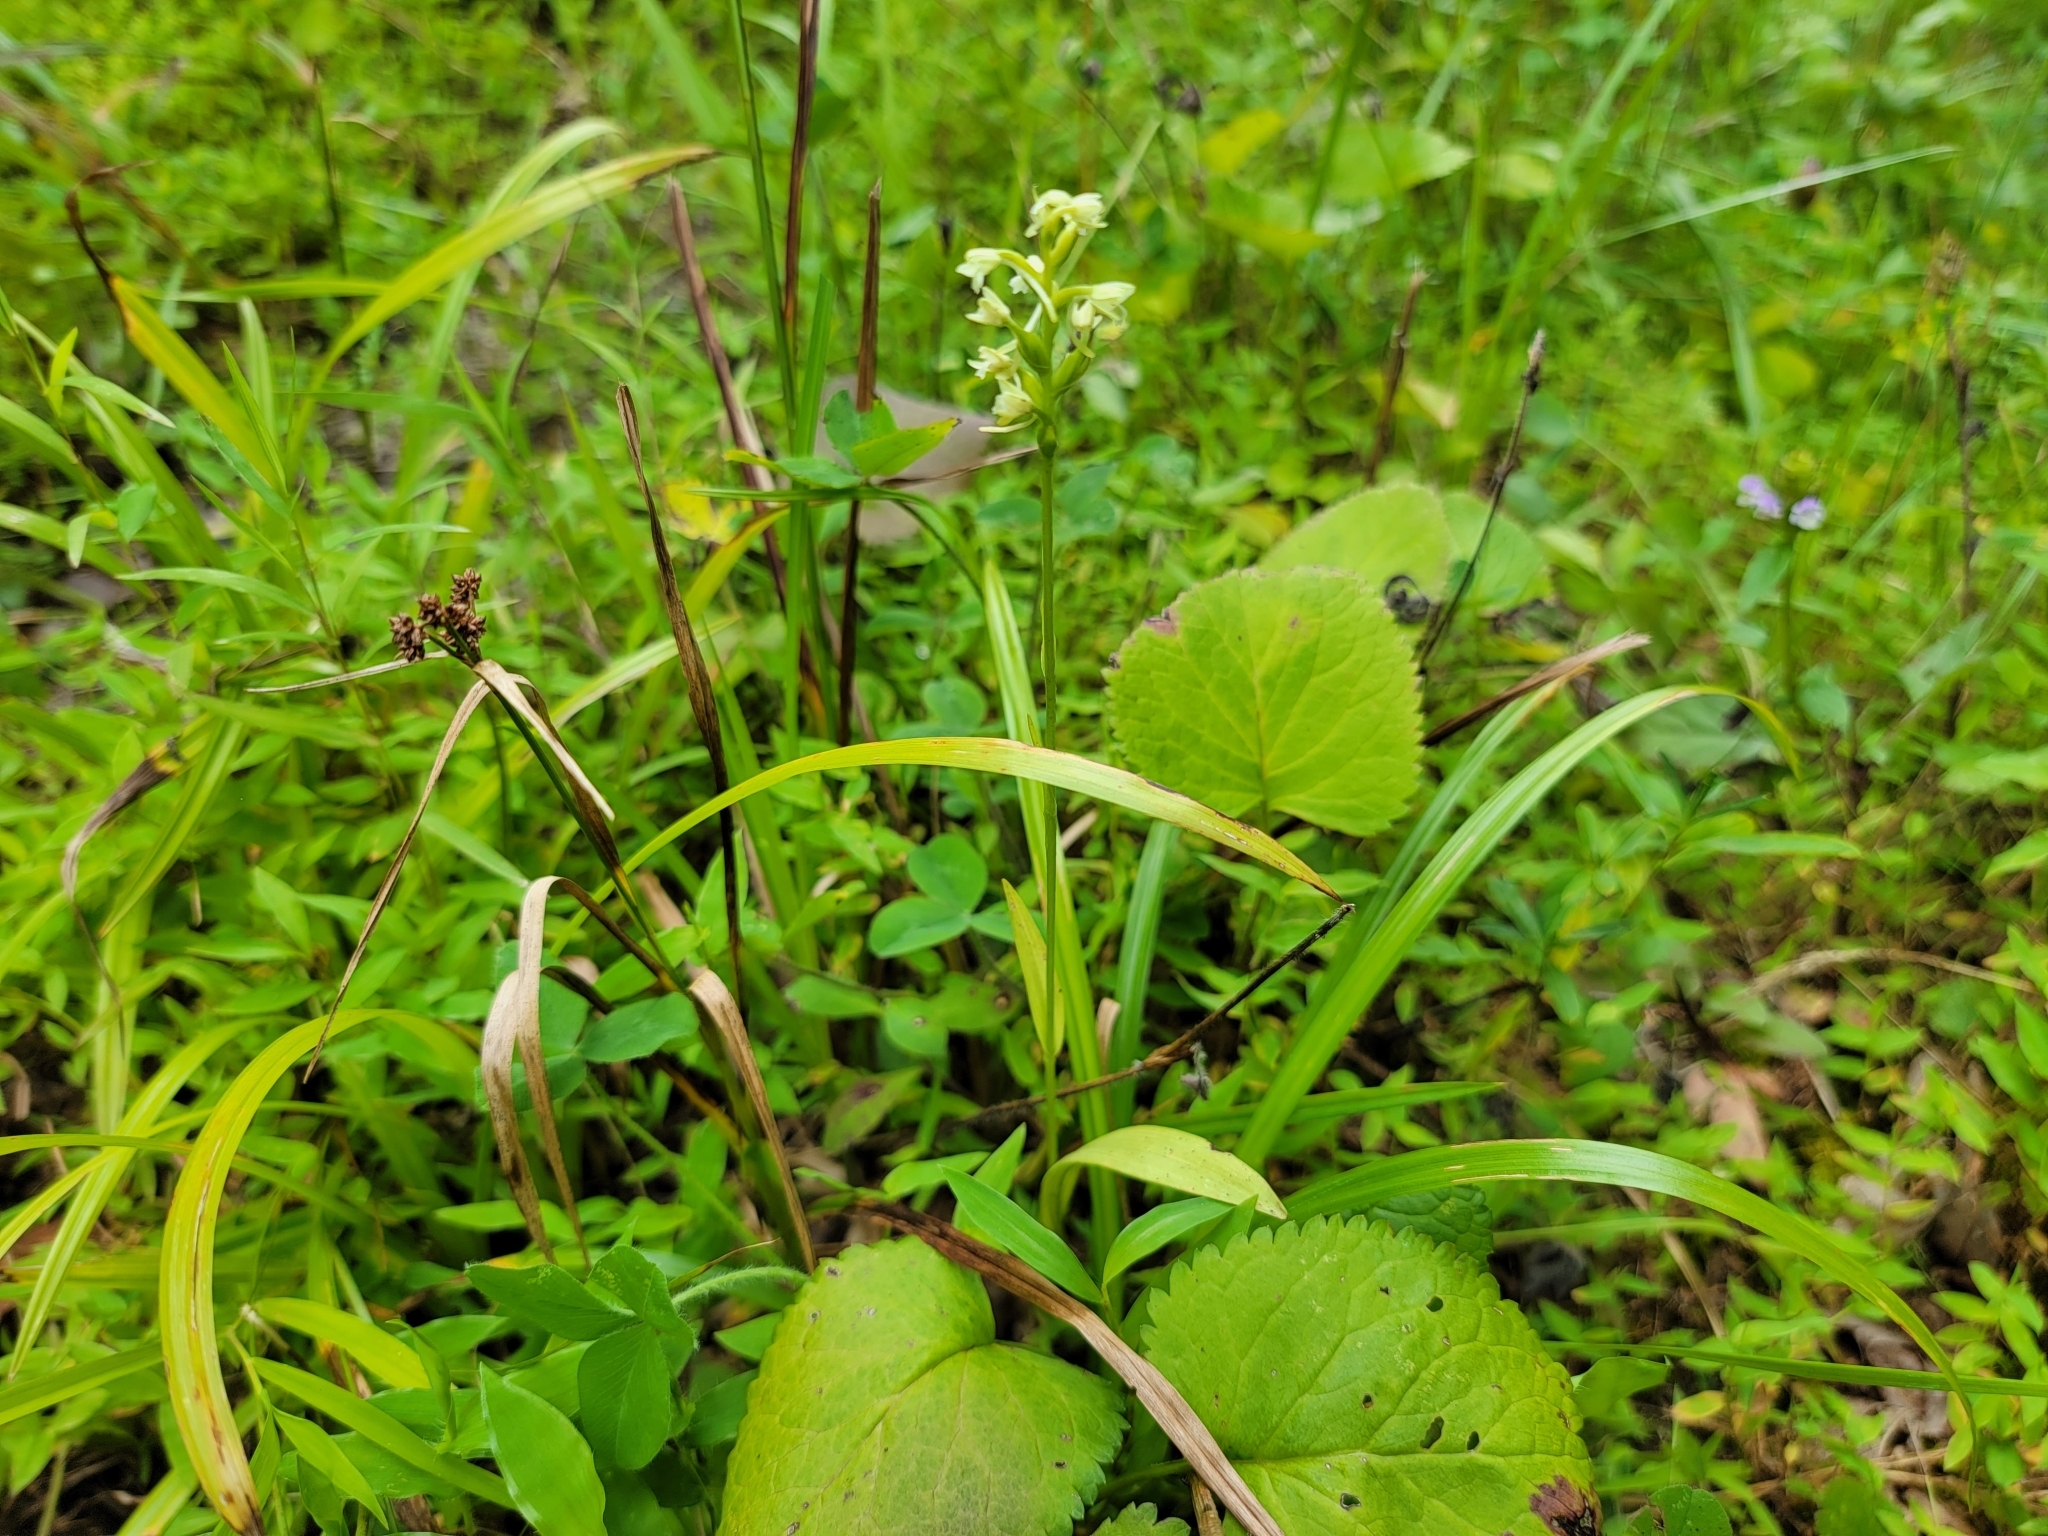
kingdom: Plantae
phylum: Tracheophyta
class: Liliopsida
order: Asparagales
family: Orchidaceae
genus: Platanthera
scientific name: Platanthera clavellata
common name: Club-spur orchid
